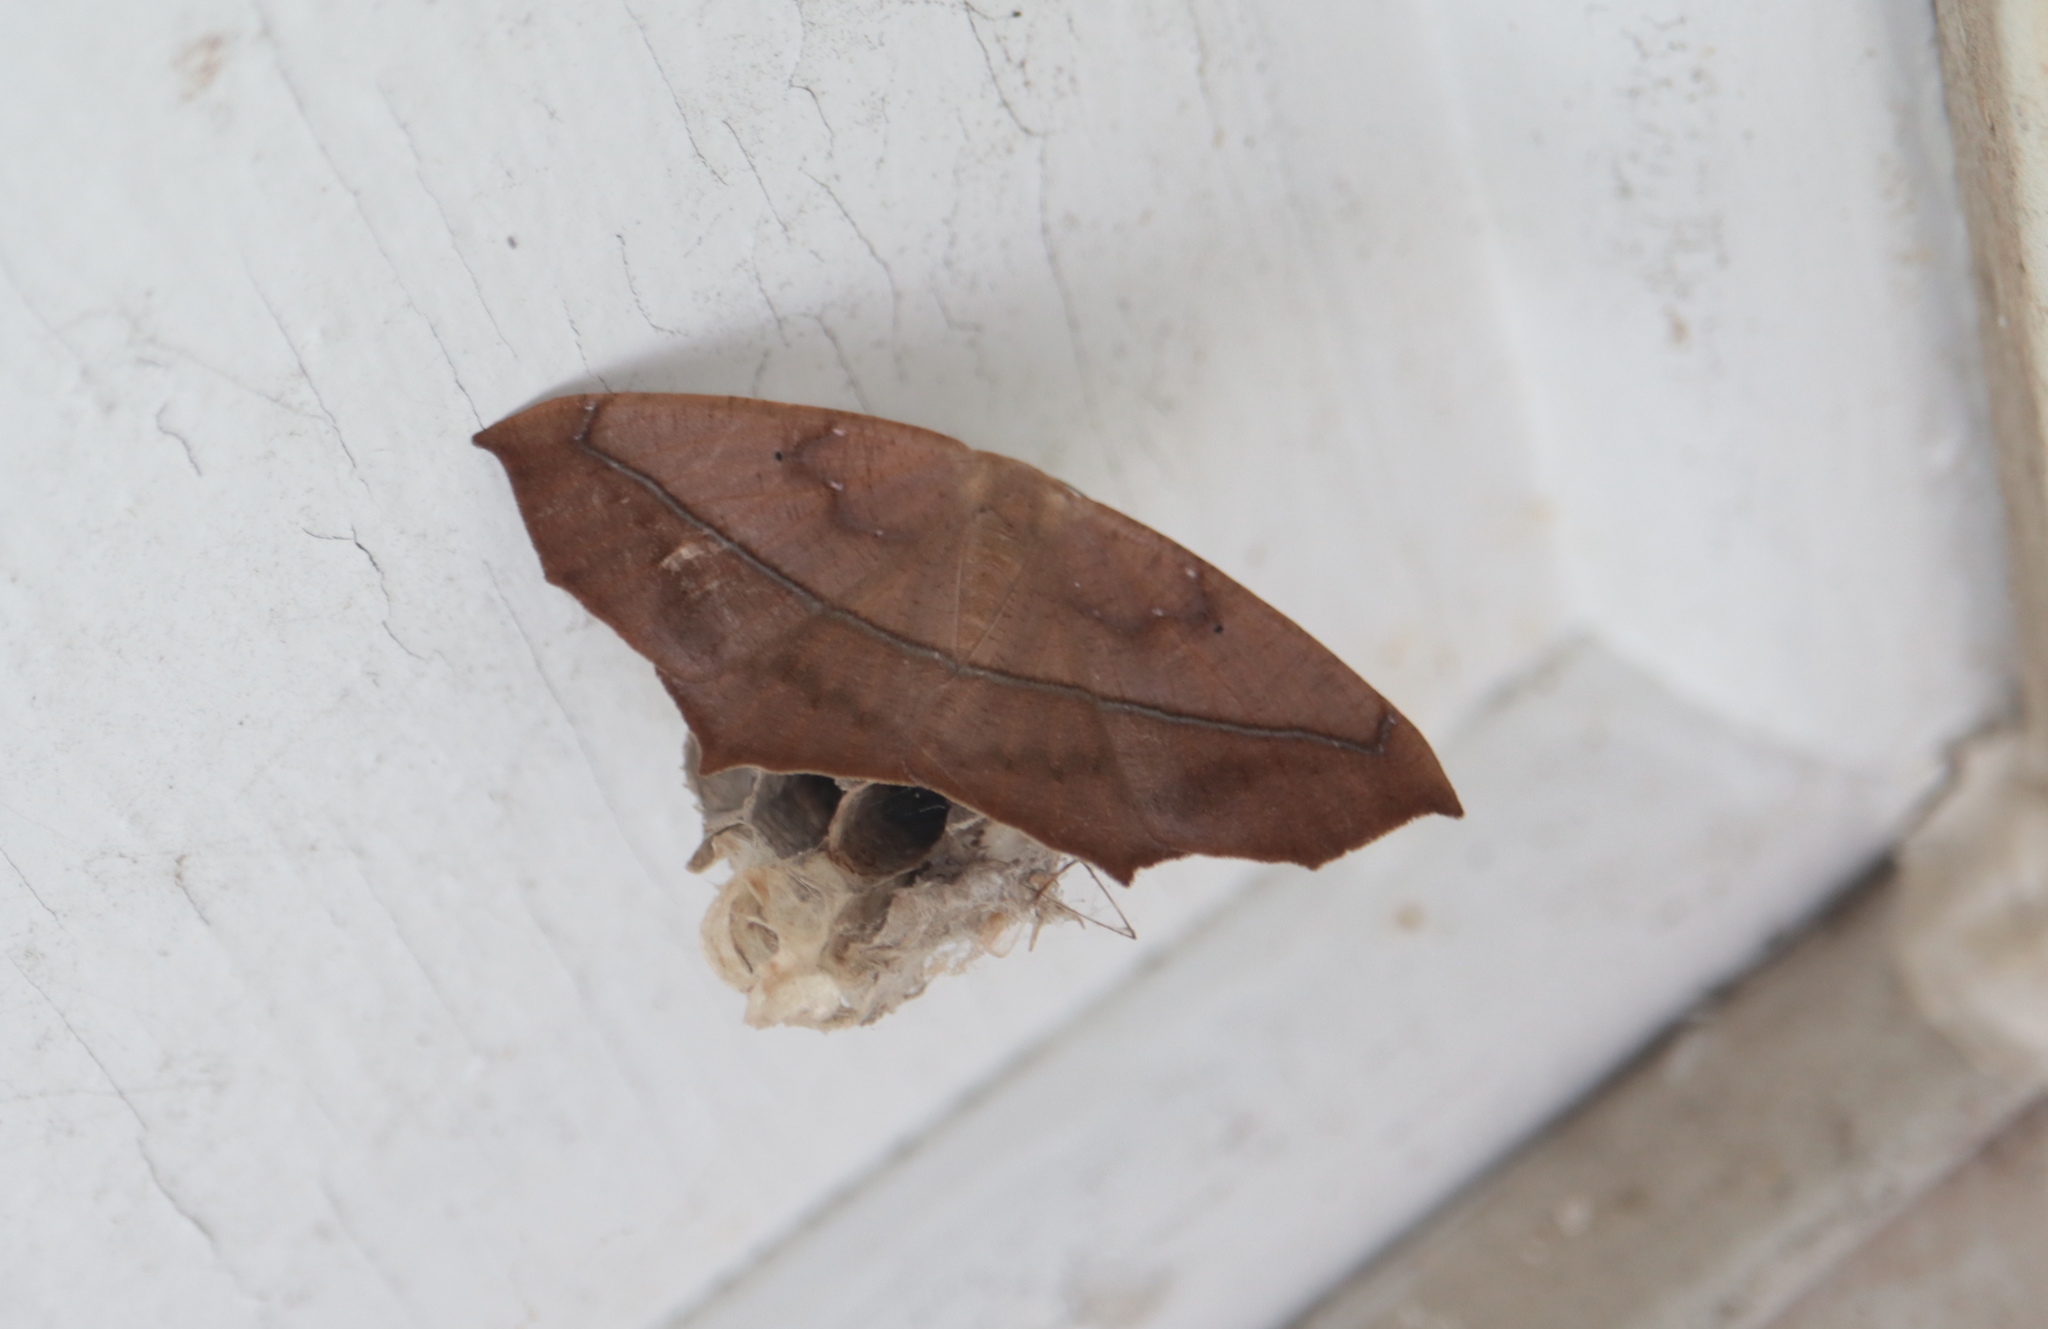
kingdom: Animalia
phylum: Arthropoda
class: Insecta
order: Lepidoptera
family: Geometridae
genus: Prochoerodes
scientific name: Prochoerodes lineola
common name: Large maple spanworm
